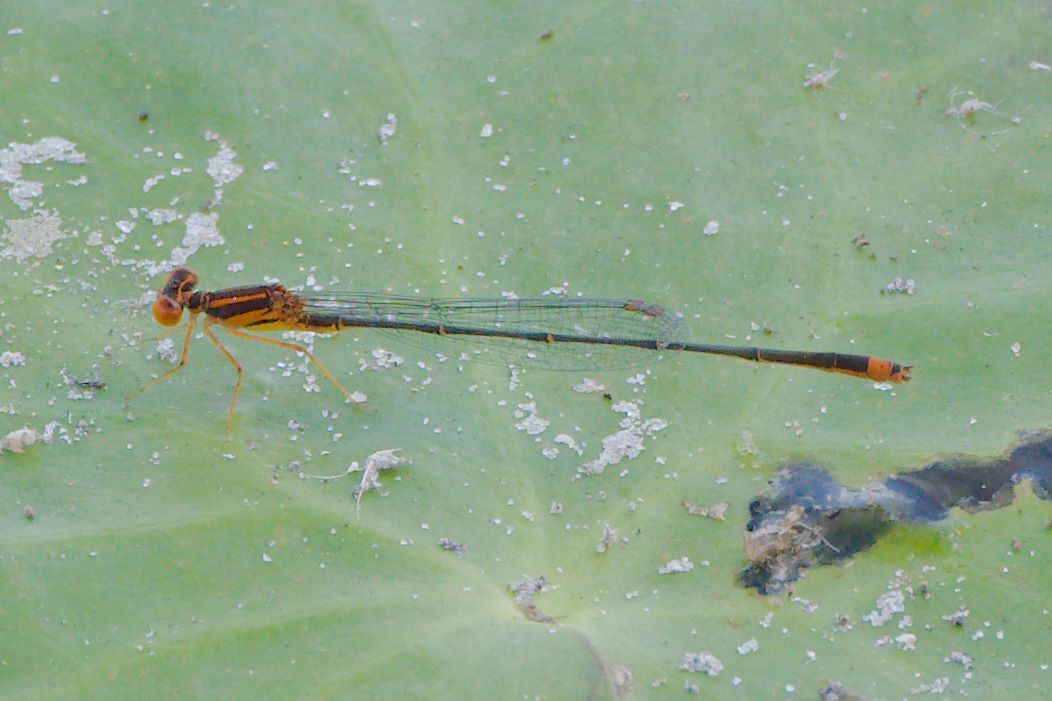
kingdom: Animalia
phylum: Arthropoda
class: Insecta
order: Odonata
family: Coenagrionidae
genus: Enallagma
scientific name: Enallagma pollutum
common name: Florida bluet
